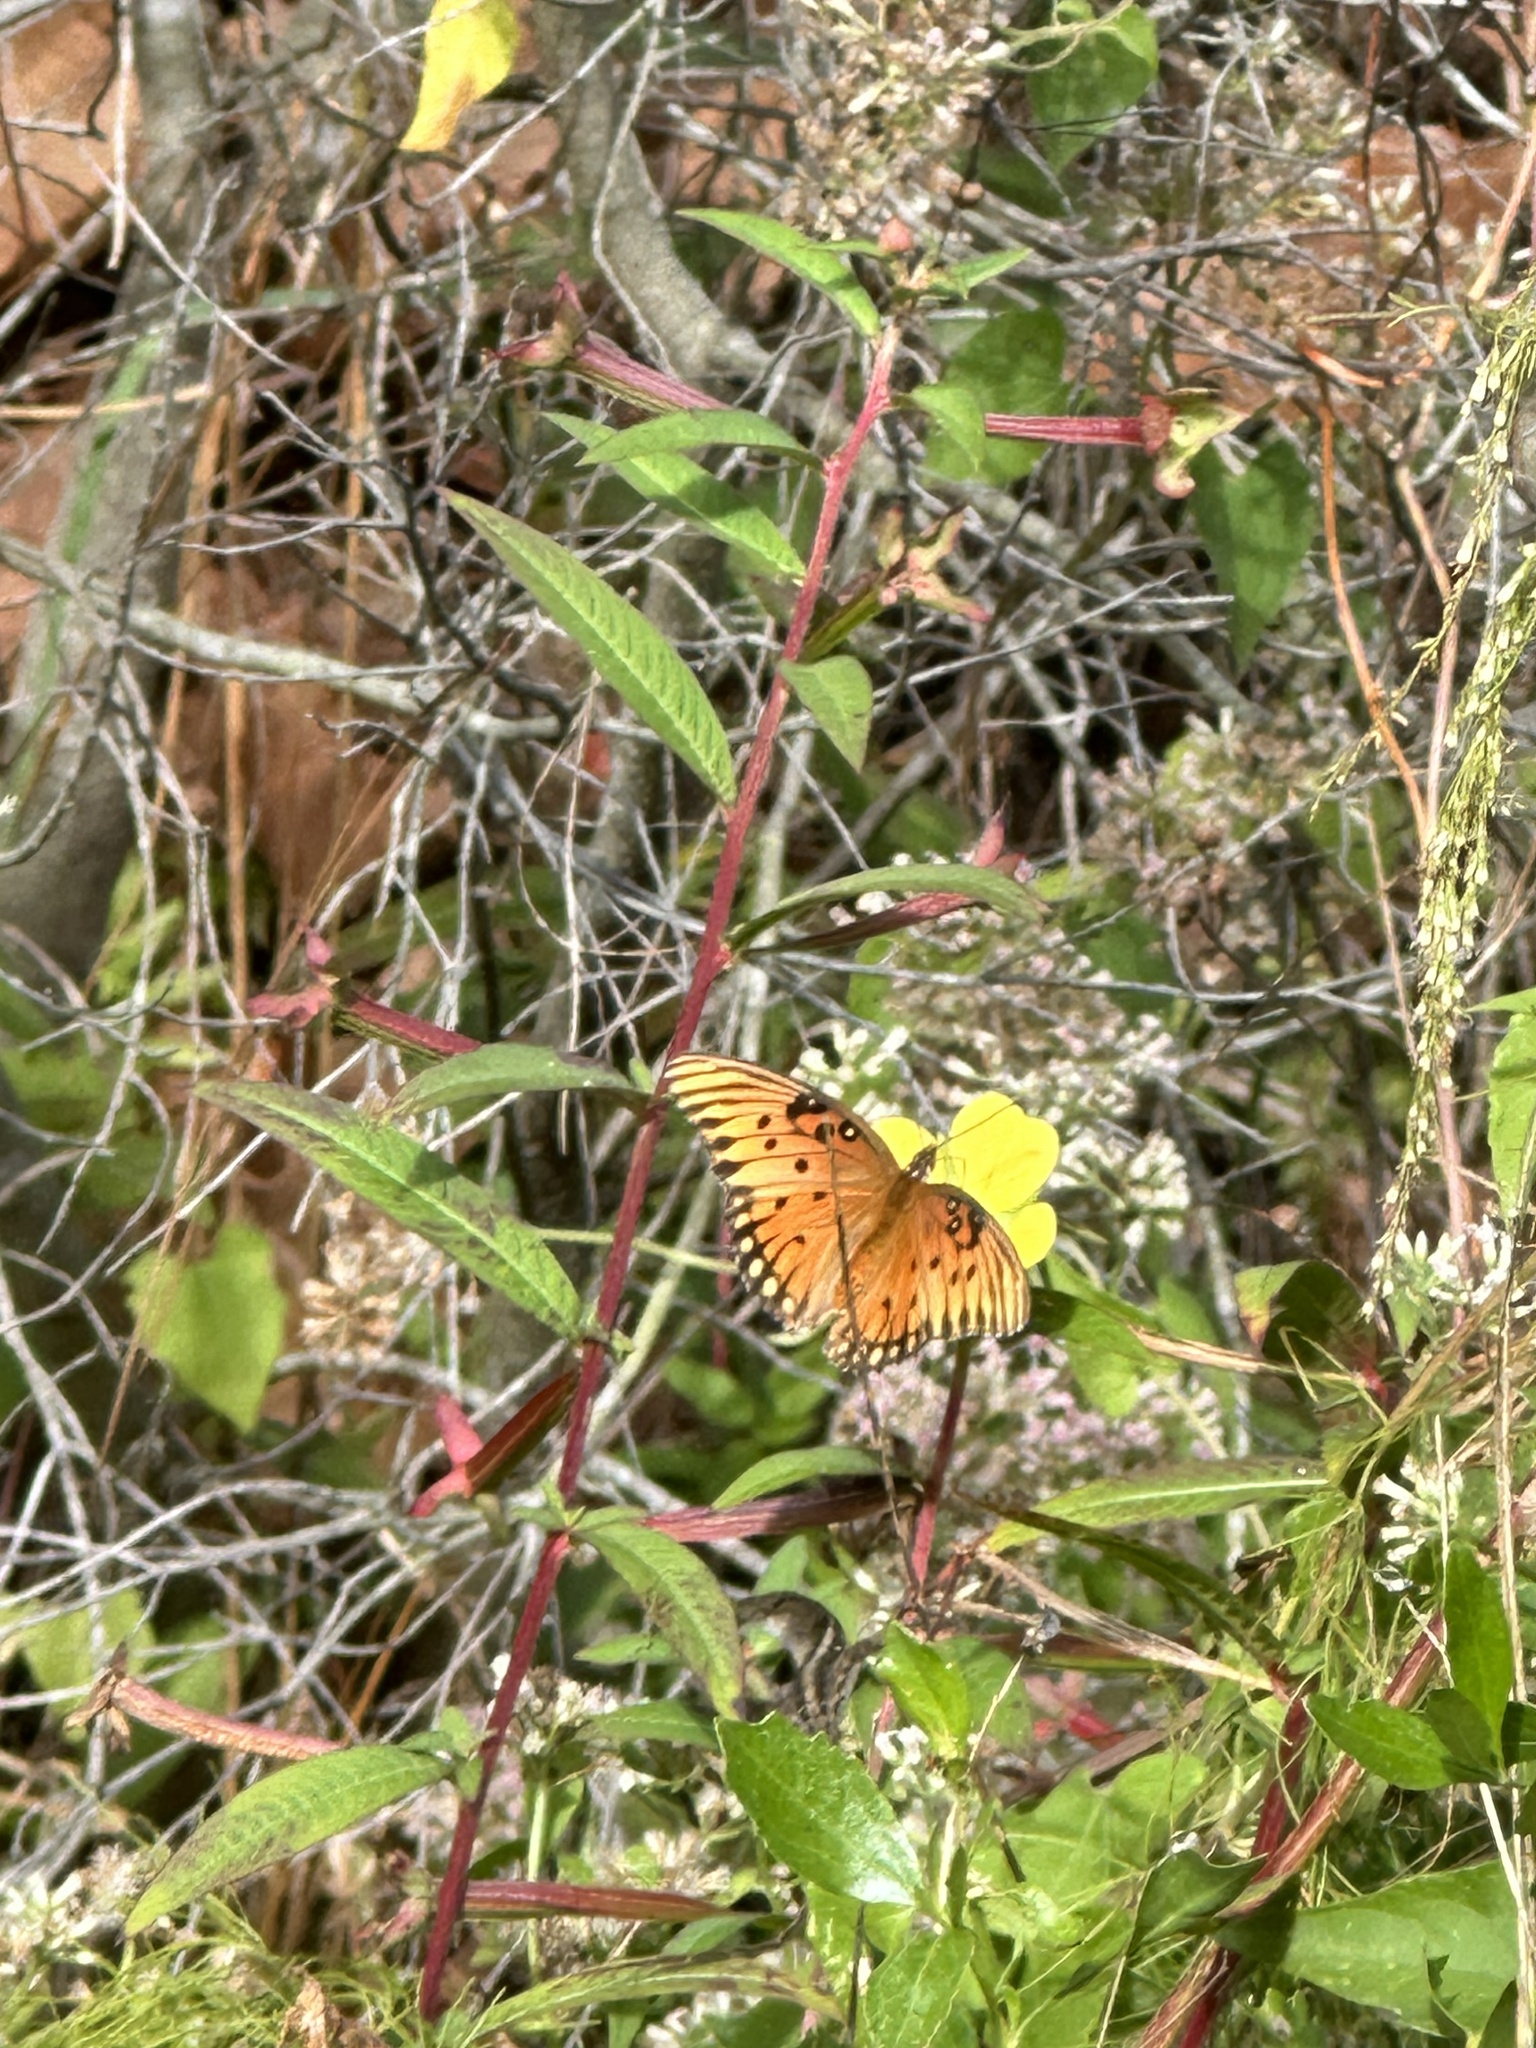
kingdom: Animalia
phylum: Arthropoda
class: Insecta
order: Lepidoptera
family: Nymphalidae
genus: Dione
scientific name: Dione vanillae
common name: Gulf fritillary
